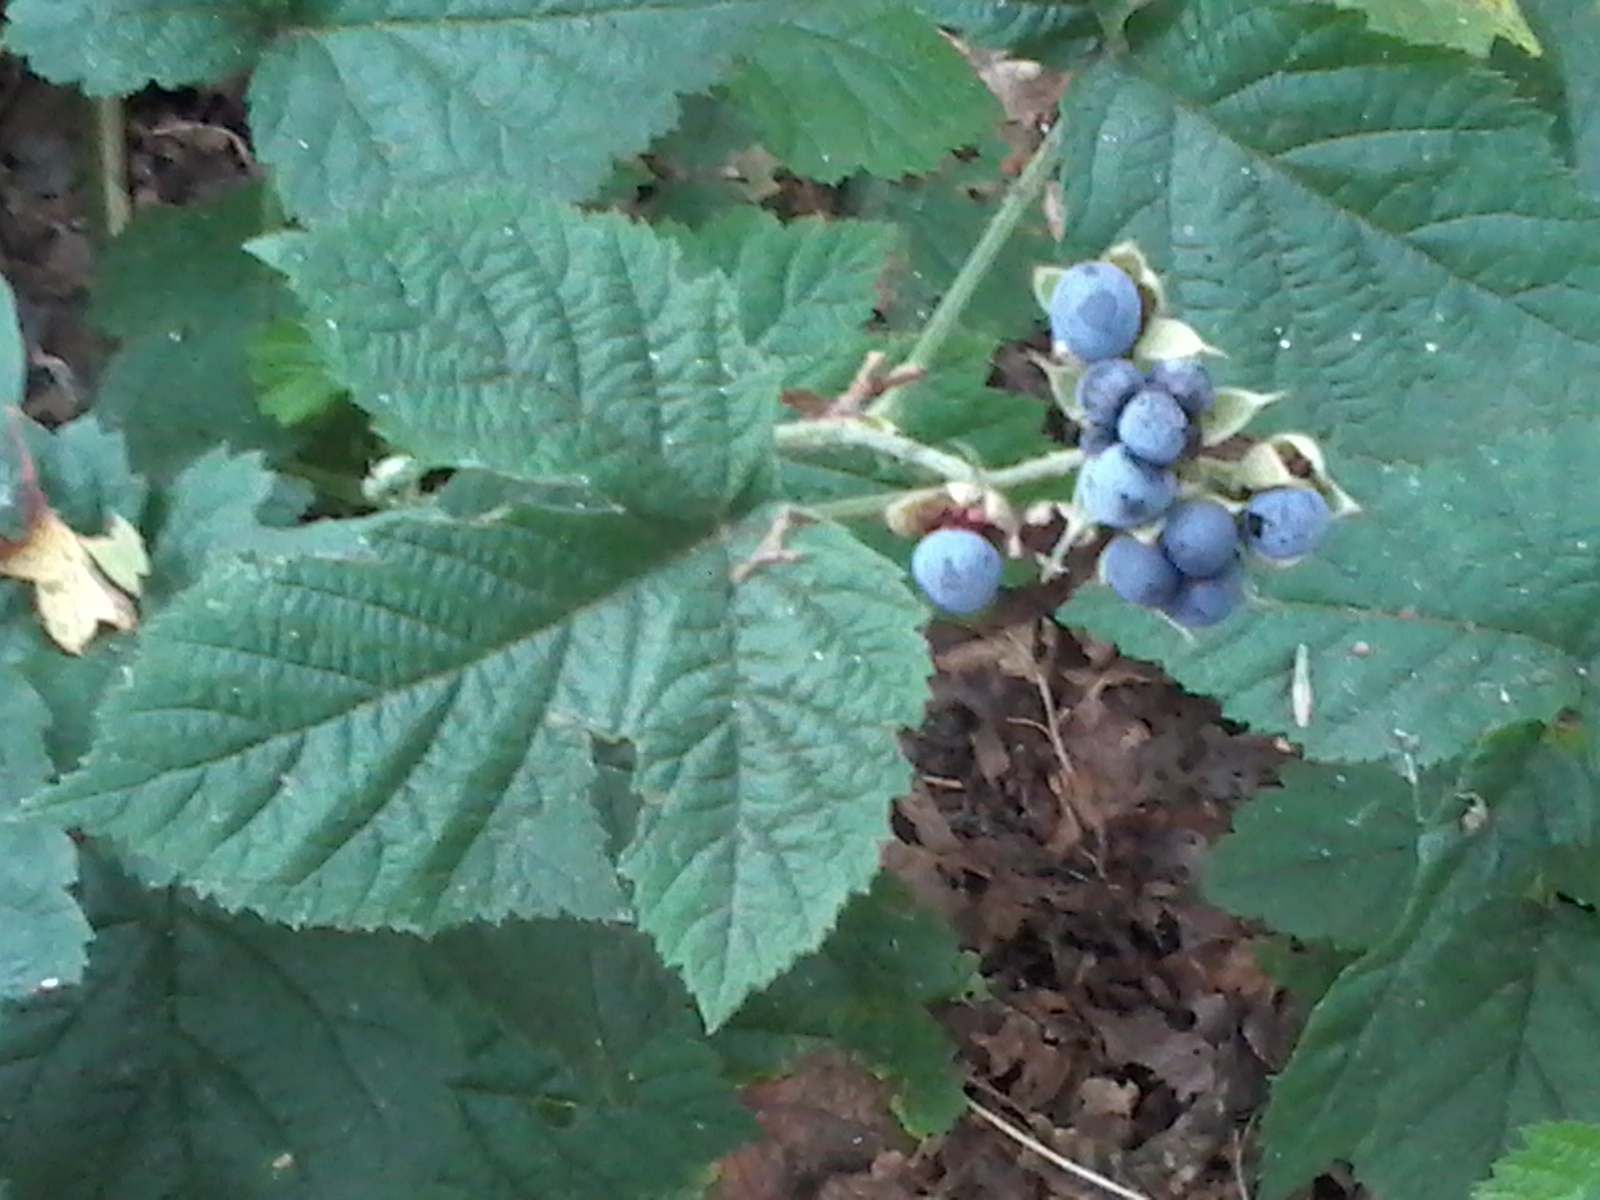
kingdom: Plantae
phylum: Tracheophyta
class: Magnoliopsida
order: Rosales
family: Rosaceae
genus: Rubus
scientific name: Rubus caesius
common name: Dewberry
